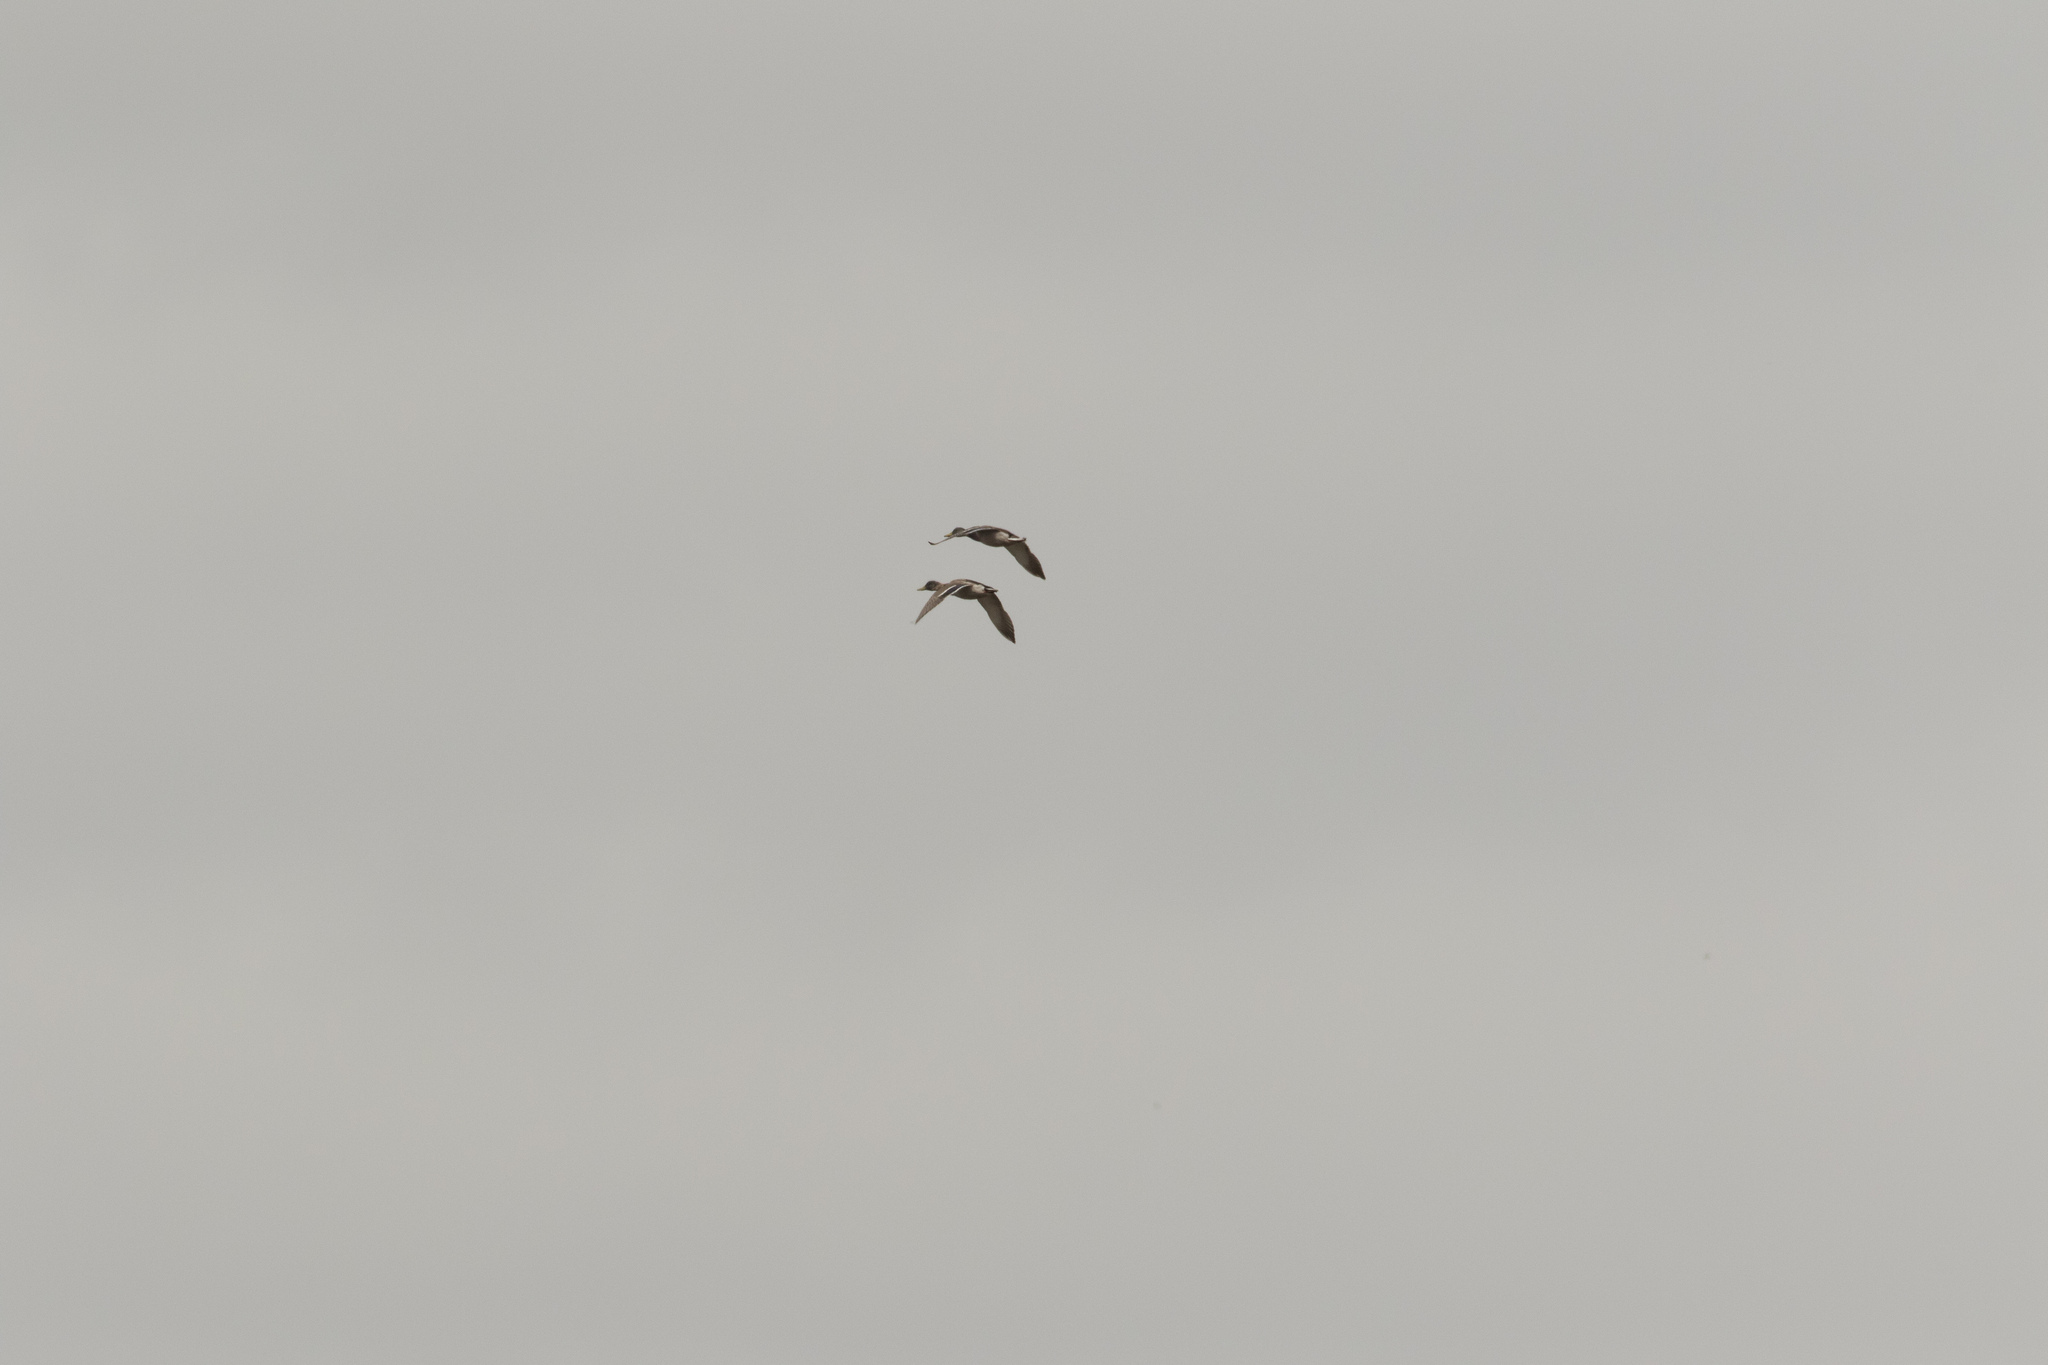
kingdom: Animalia
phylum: Chordata
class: Aves
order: Anseriformes
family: Anatidae
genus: Anas
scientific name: Anas platyrhynchos
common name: Mallard
